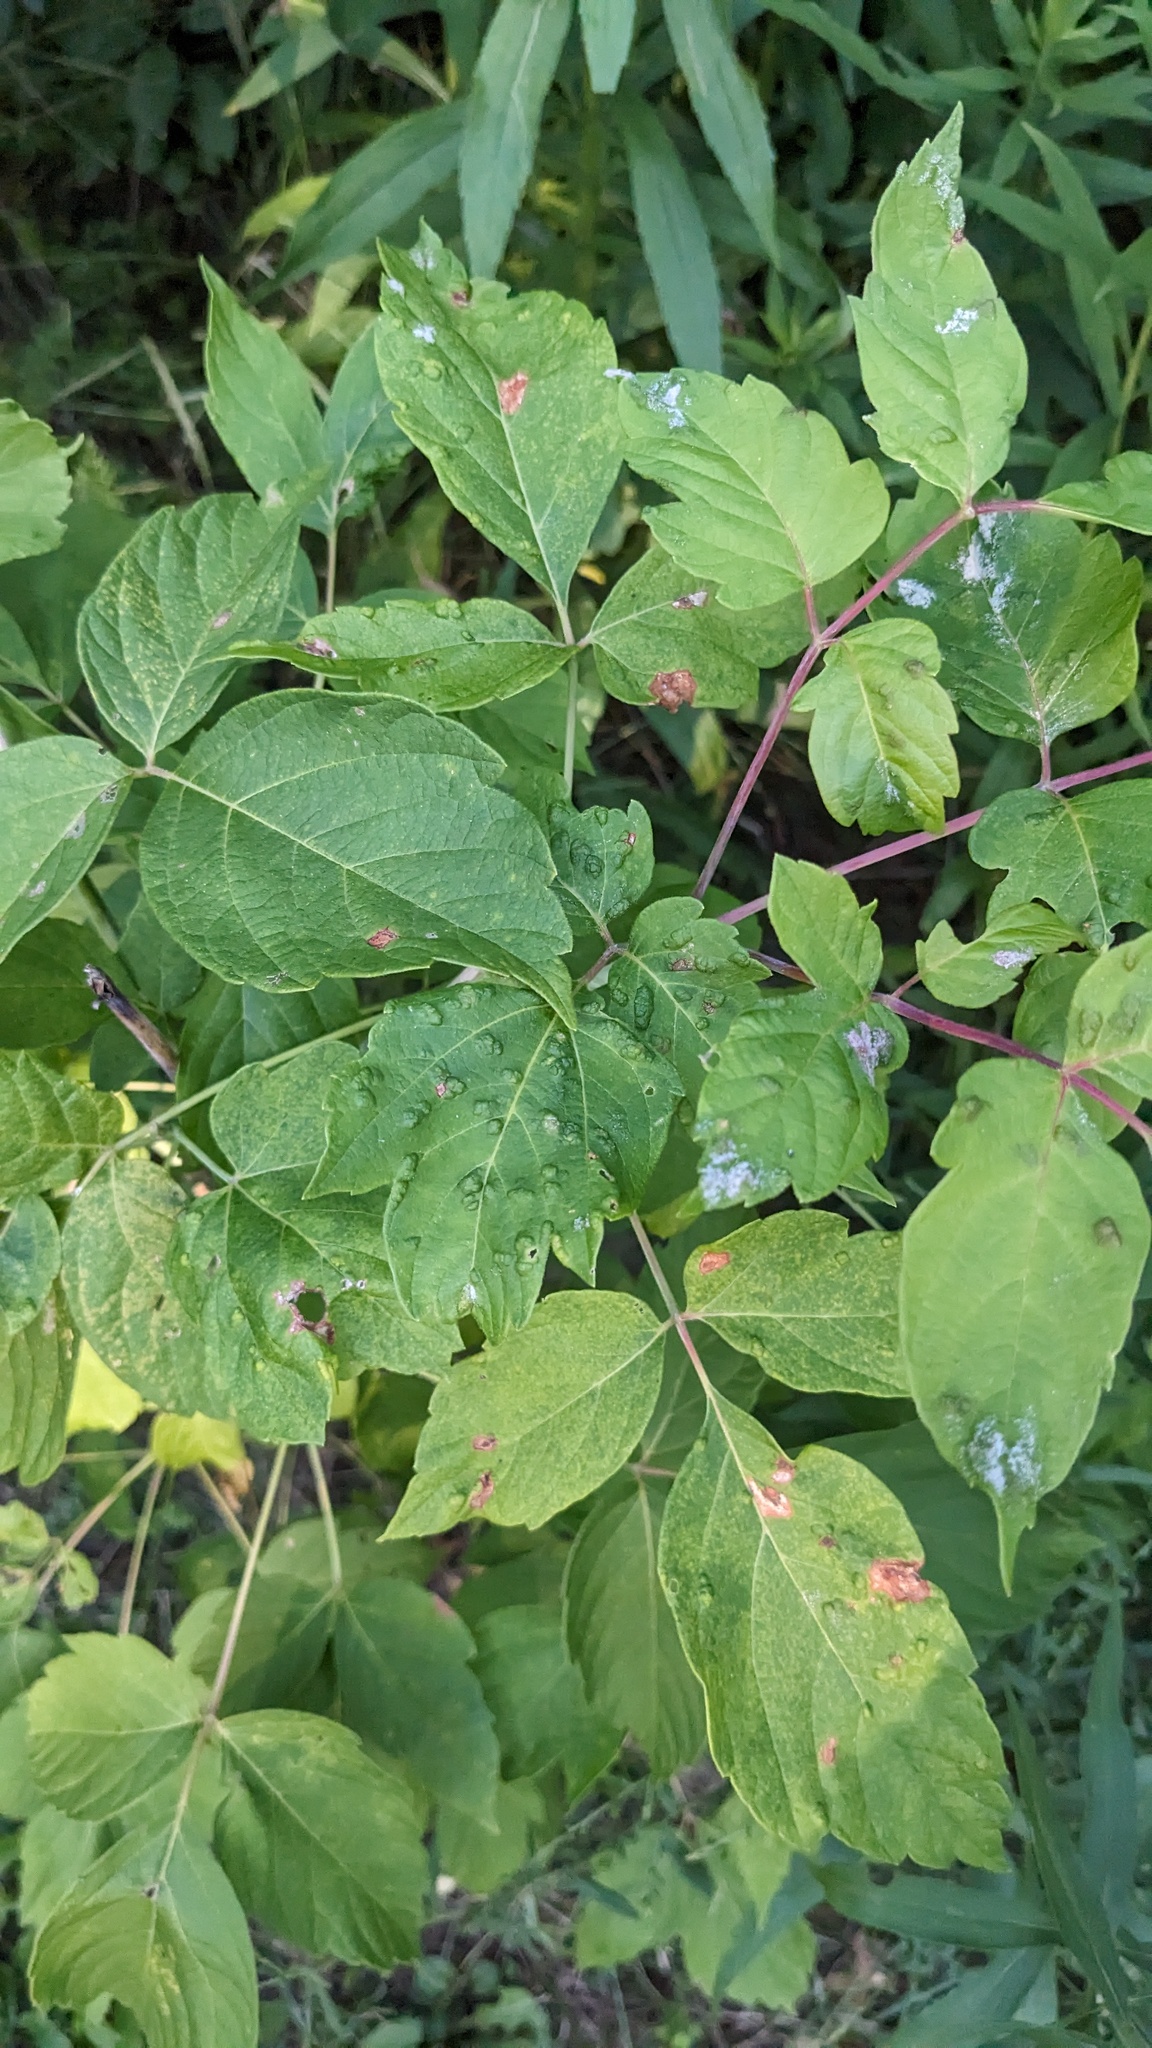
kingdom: Animalia
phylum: Arthropoda
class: Arachnida
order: Trombidiformes
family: Eriophyidae
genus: Aceria
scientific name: Aceria
